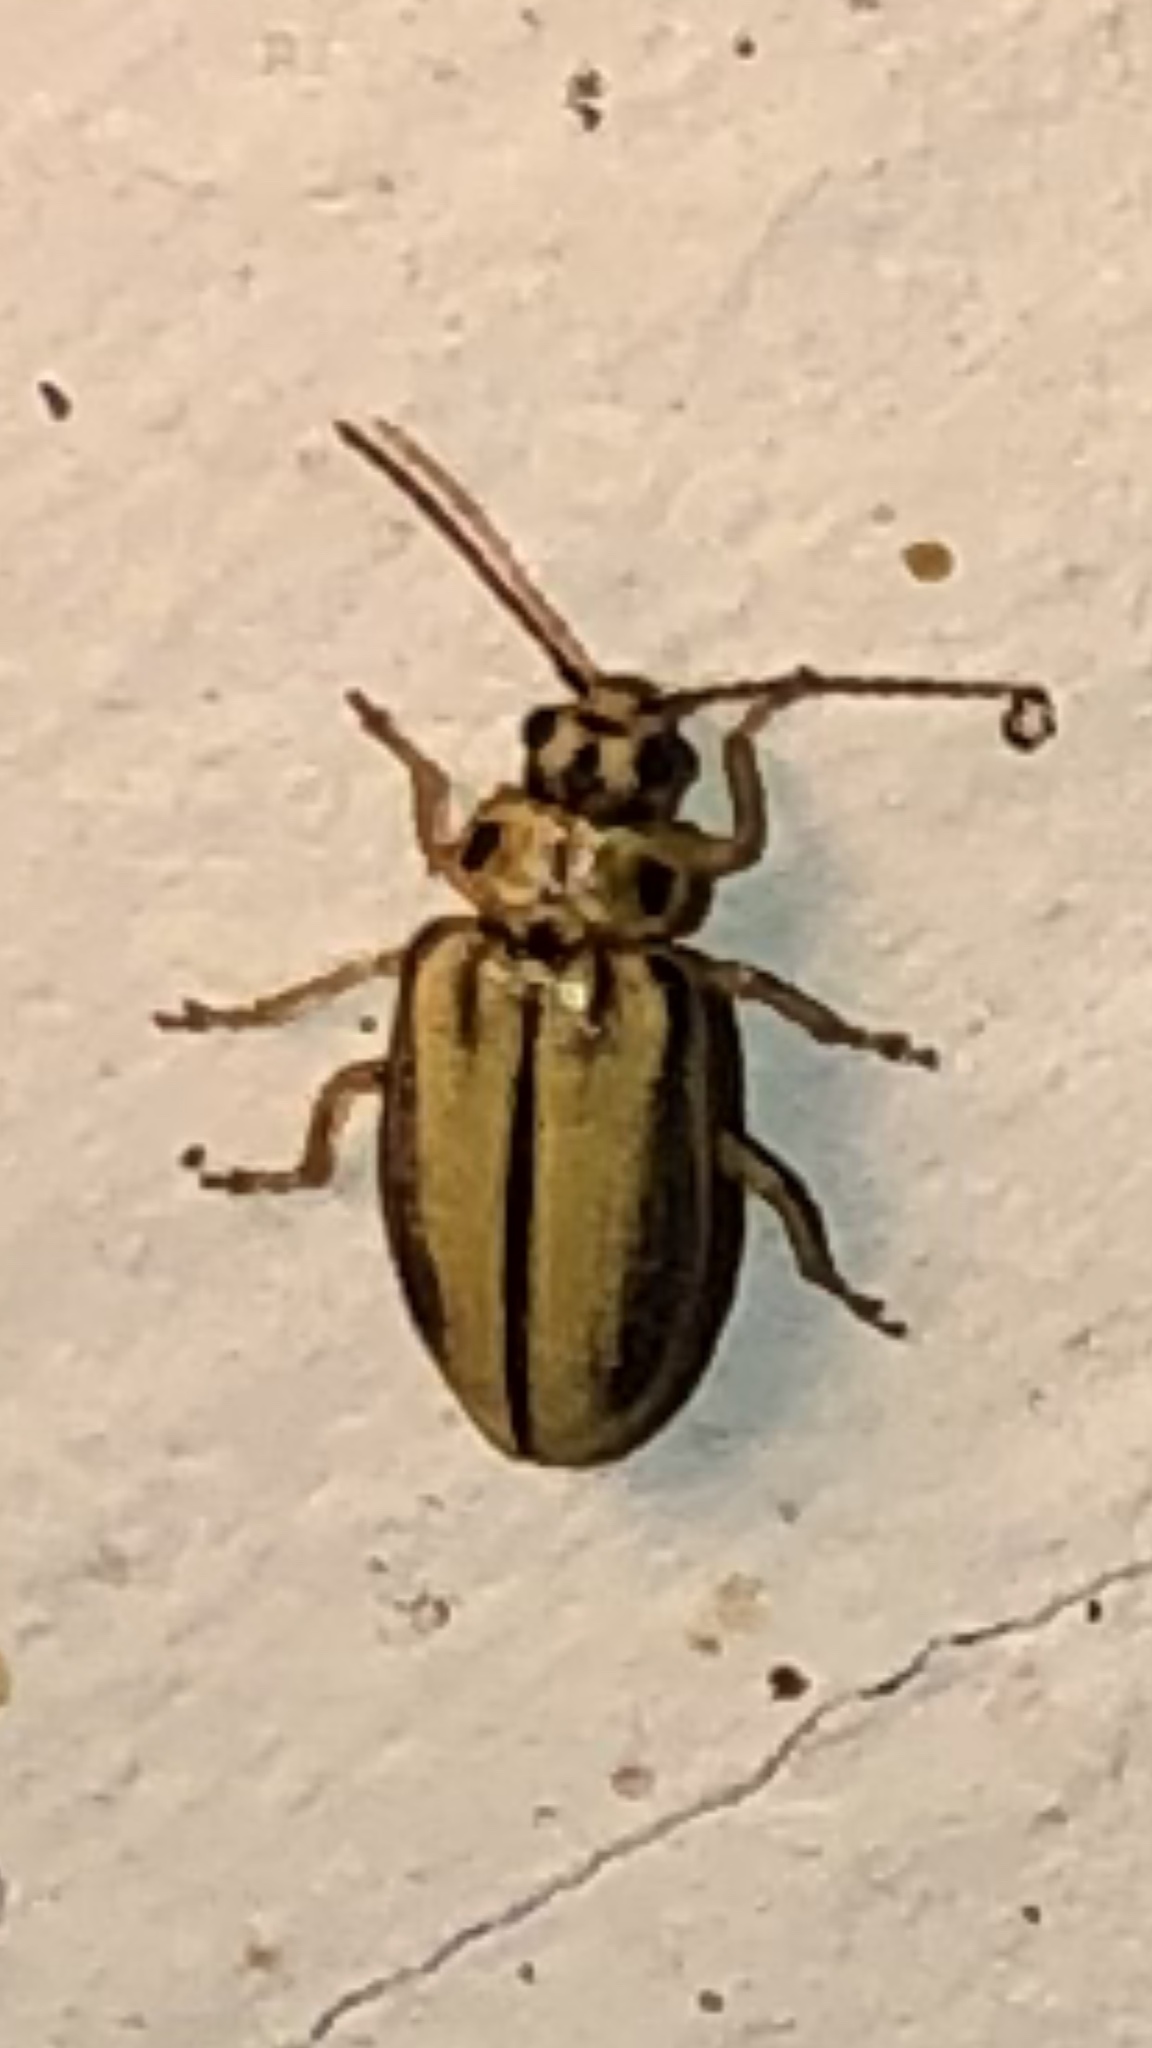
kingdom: Animalia
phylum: Arthropoda
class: Insecta
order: Coleoptera
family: Chrysomelidae
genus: Xanthogaleruca
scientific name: Xanthogaleruca luteola
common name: Elm leaf beetle
